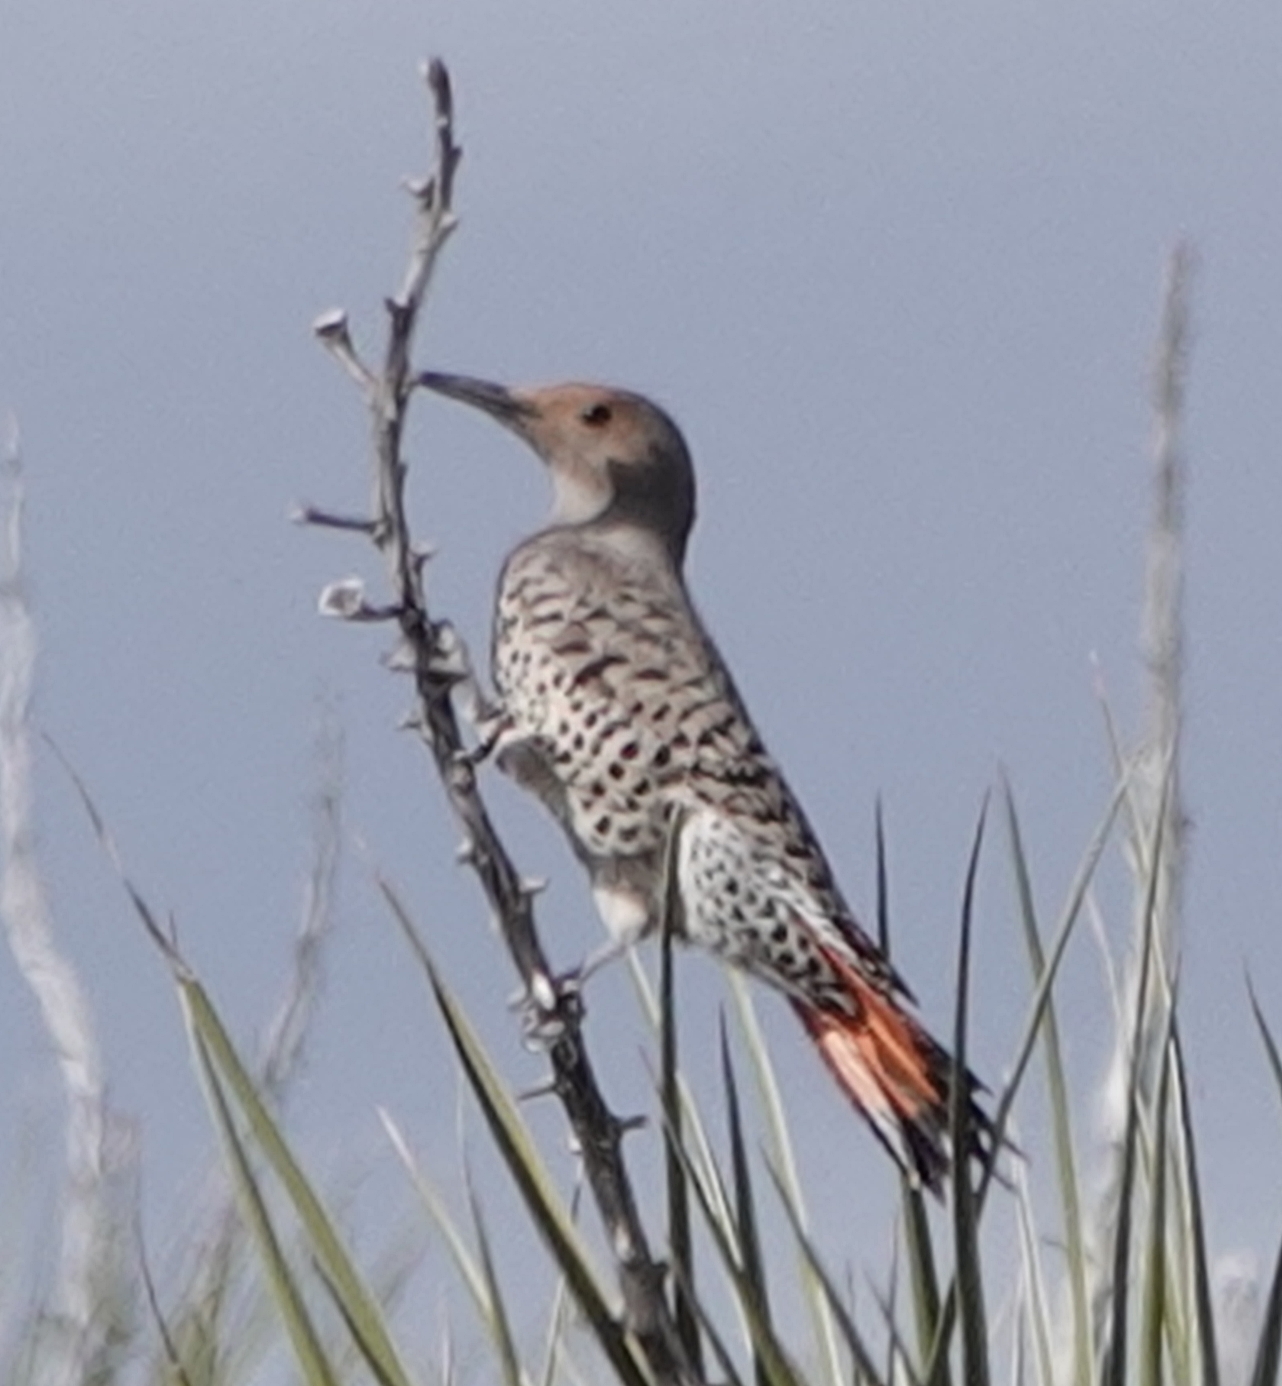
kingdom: Animalia
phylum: Chordata
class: Aves
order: Piciformes
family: Picidae
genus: Colaptes
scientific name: Colaptes
